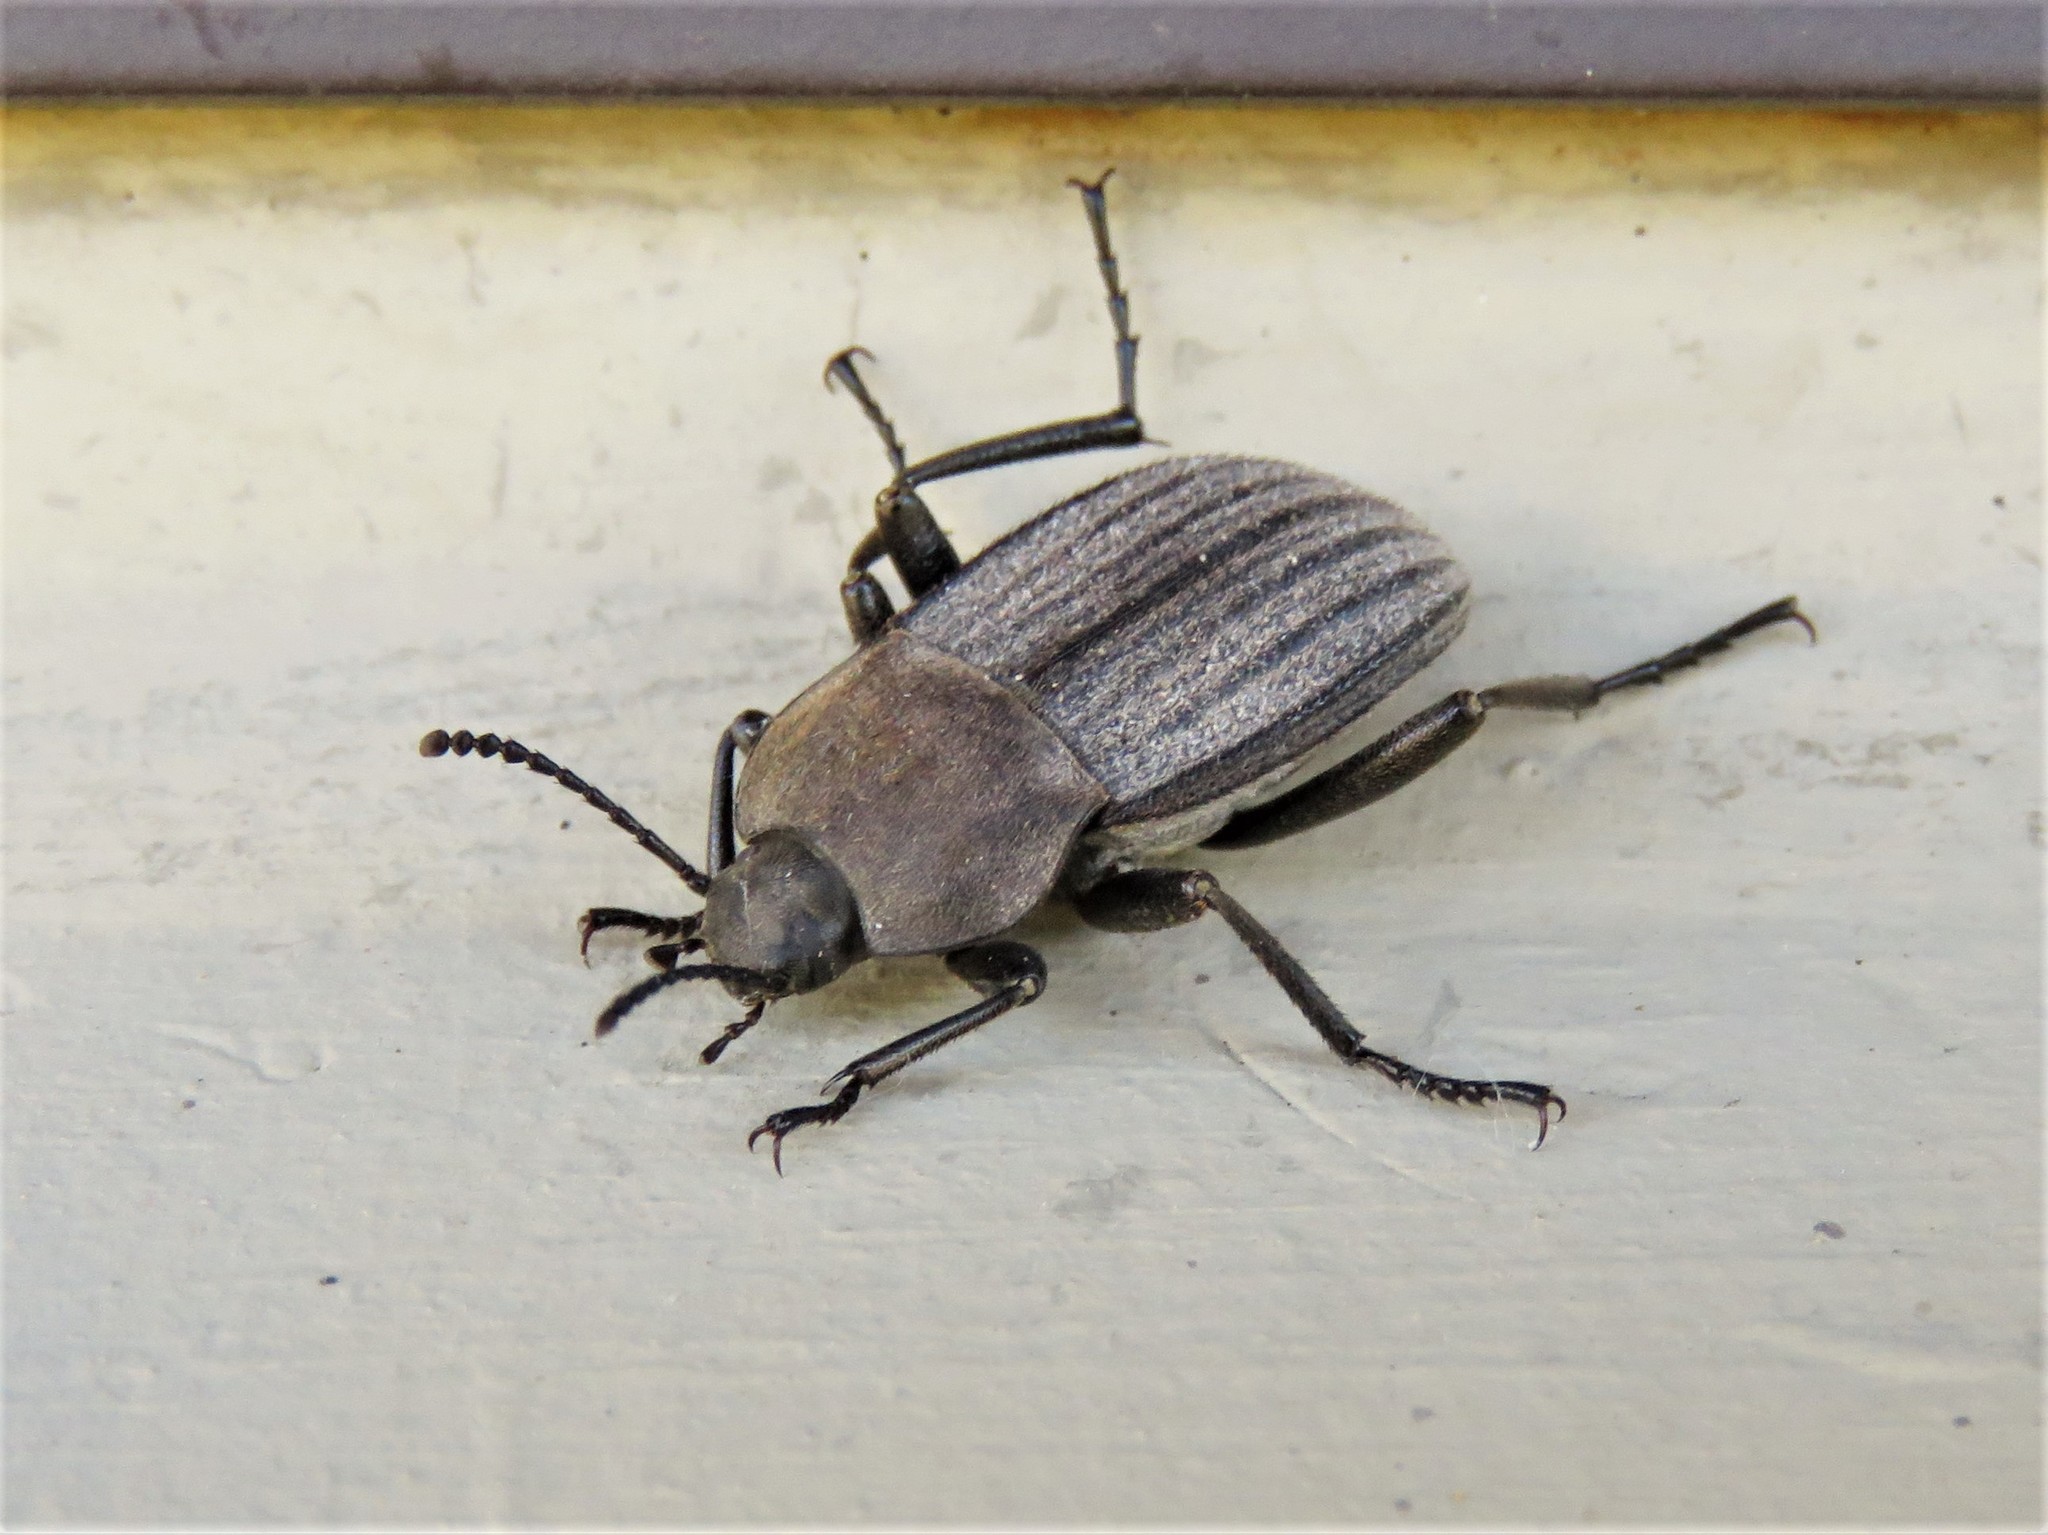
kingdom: Animalia
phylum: Arthropoda
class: Insecta
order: Coleoptera
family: Tenebrionidae
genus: Eleodes
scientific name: Eleodes tricostata
